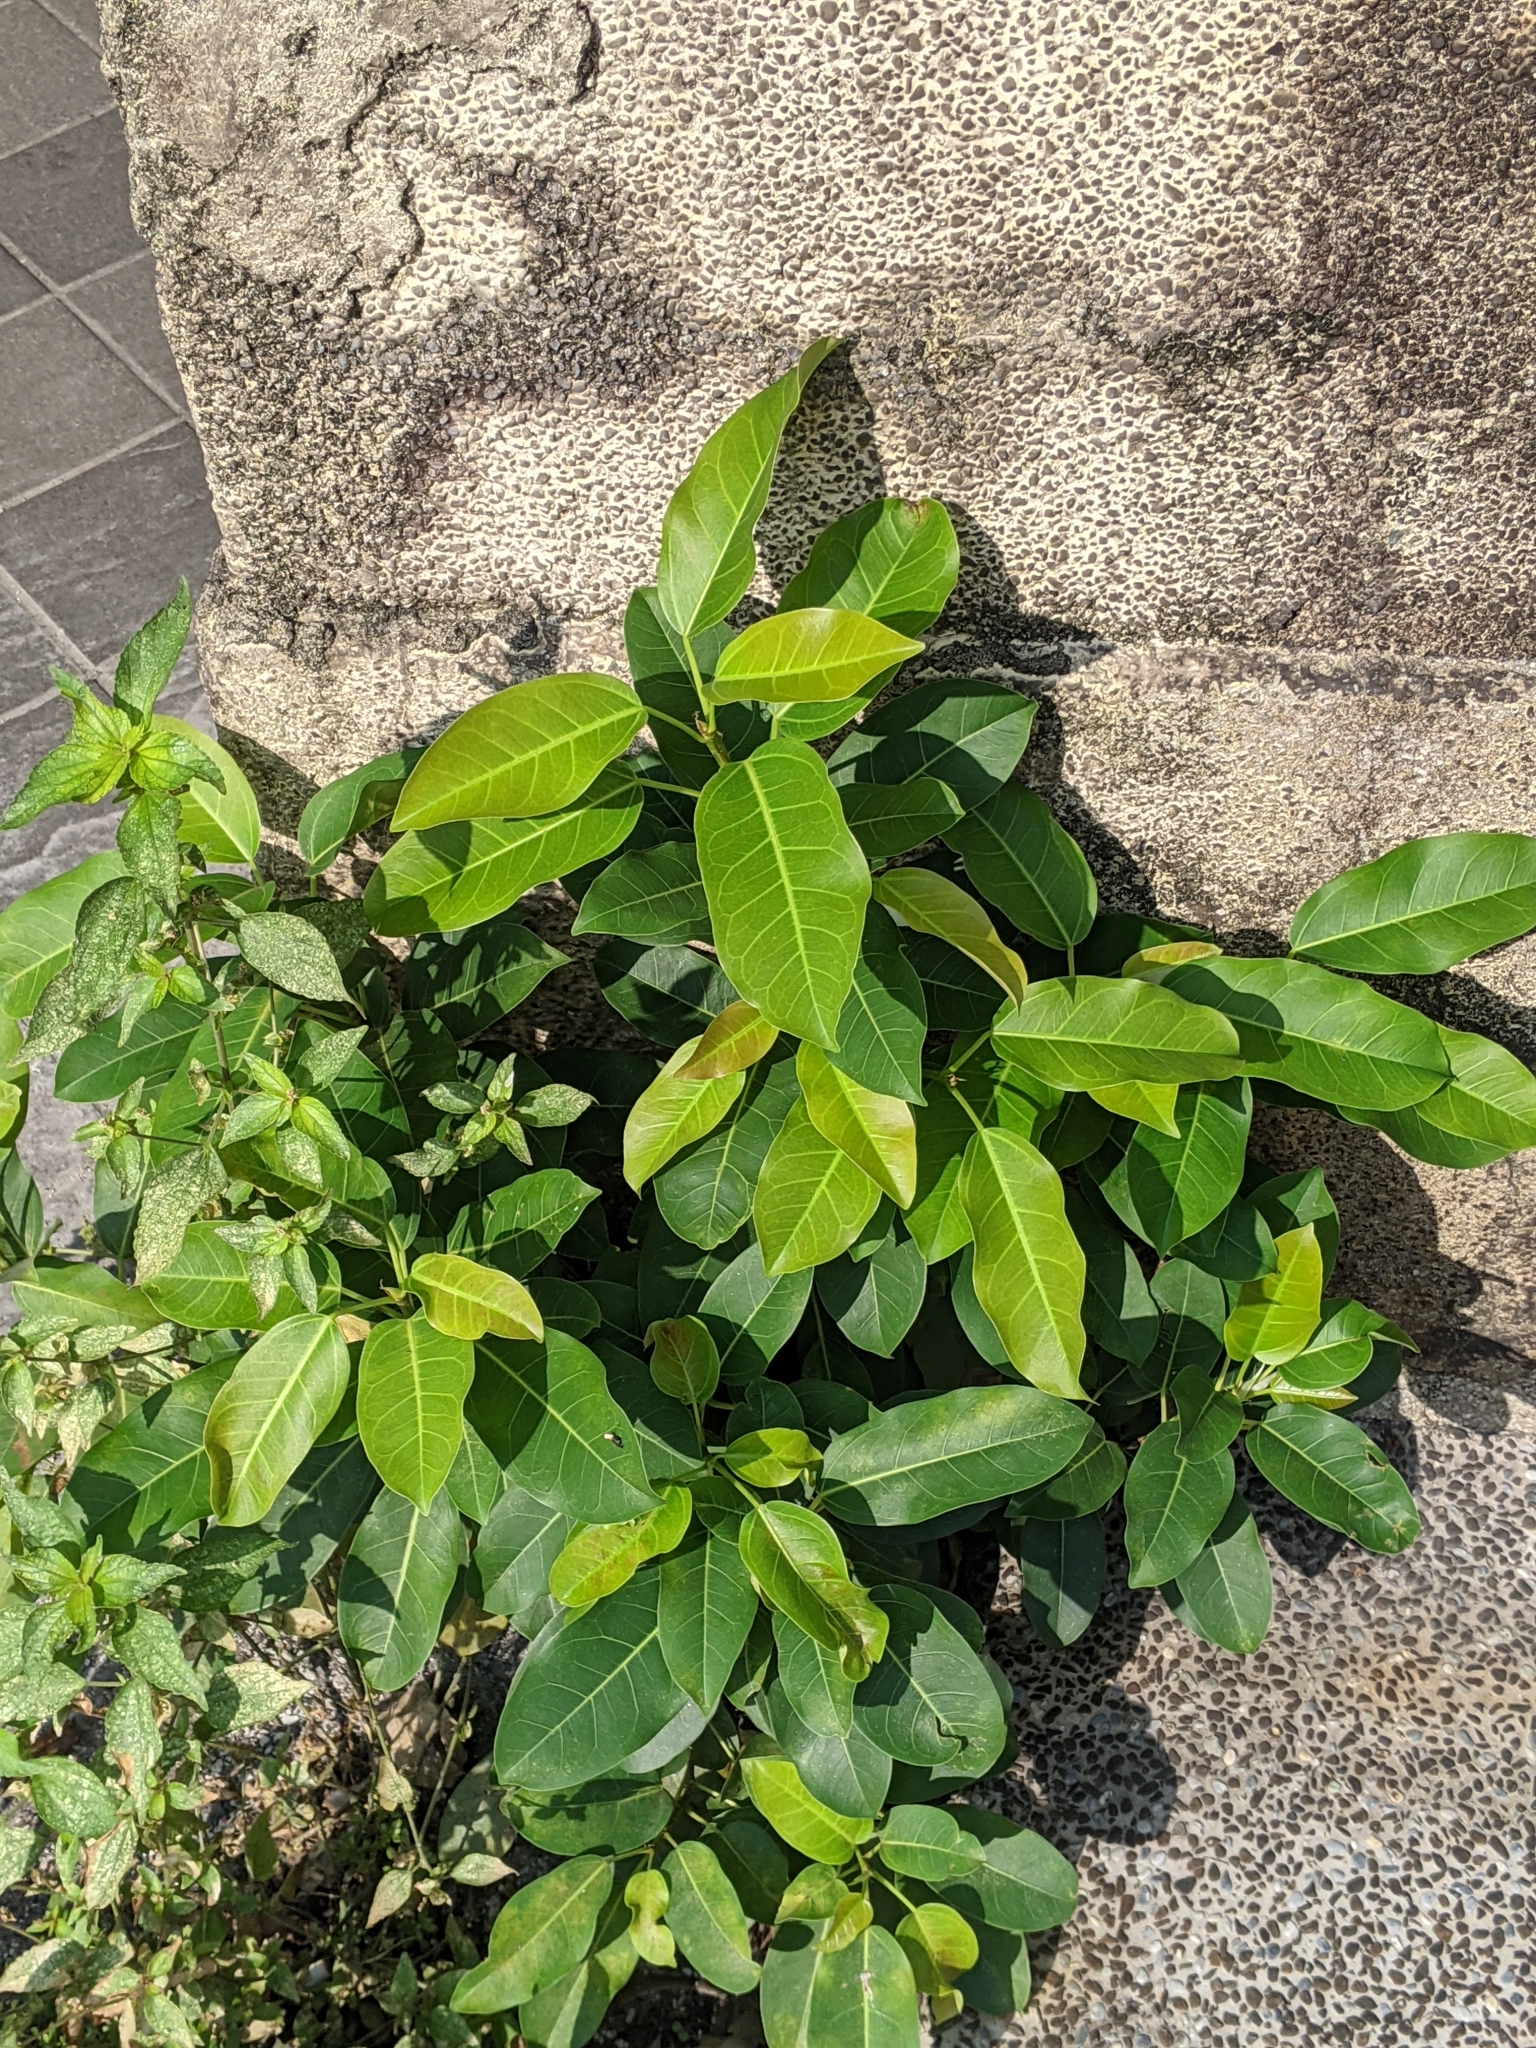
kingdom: Plantae
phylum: Tracheophyta
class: Magnoliopsida
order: Rosales
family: Moraceae
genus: Ficus
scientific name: Ficus subpisocarpa
